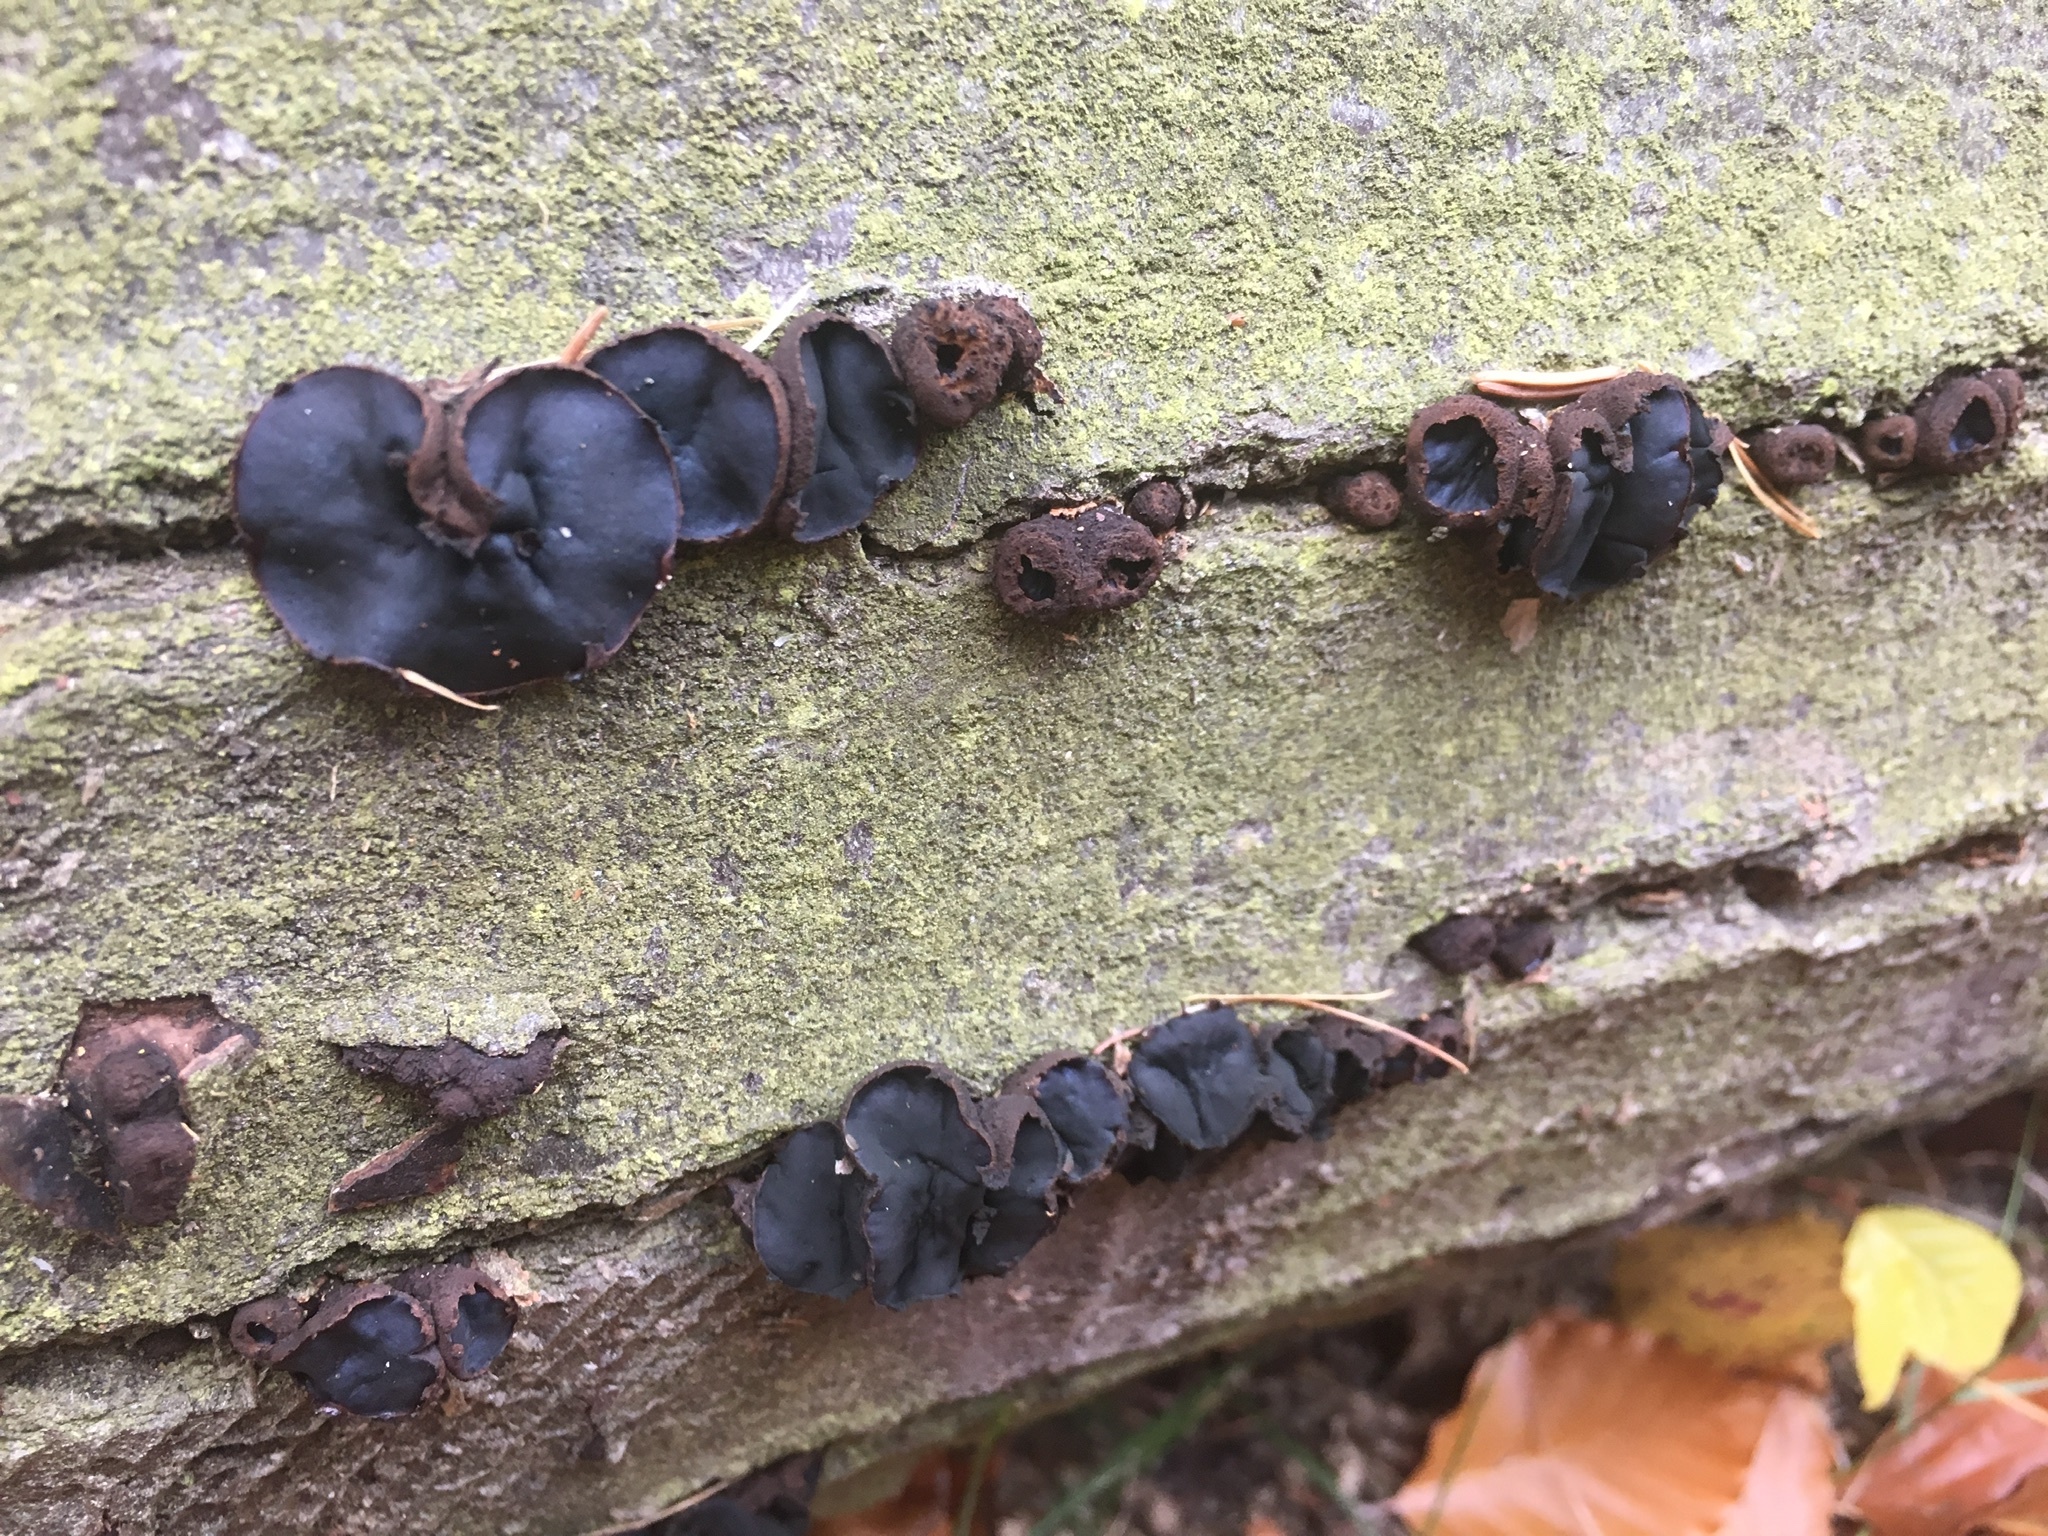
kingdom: Fungi
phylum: Ascomycota
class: Leotiomycetes
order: Phacidiales
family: Phacidiaceae
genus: Bulgaria
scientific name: Bulgaria inquinans
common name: Black bulgar
